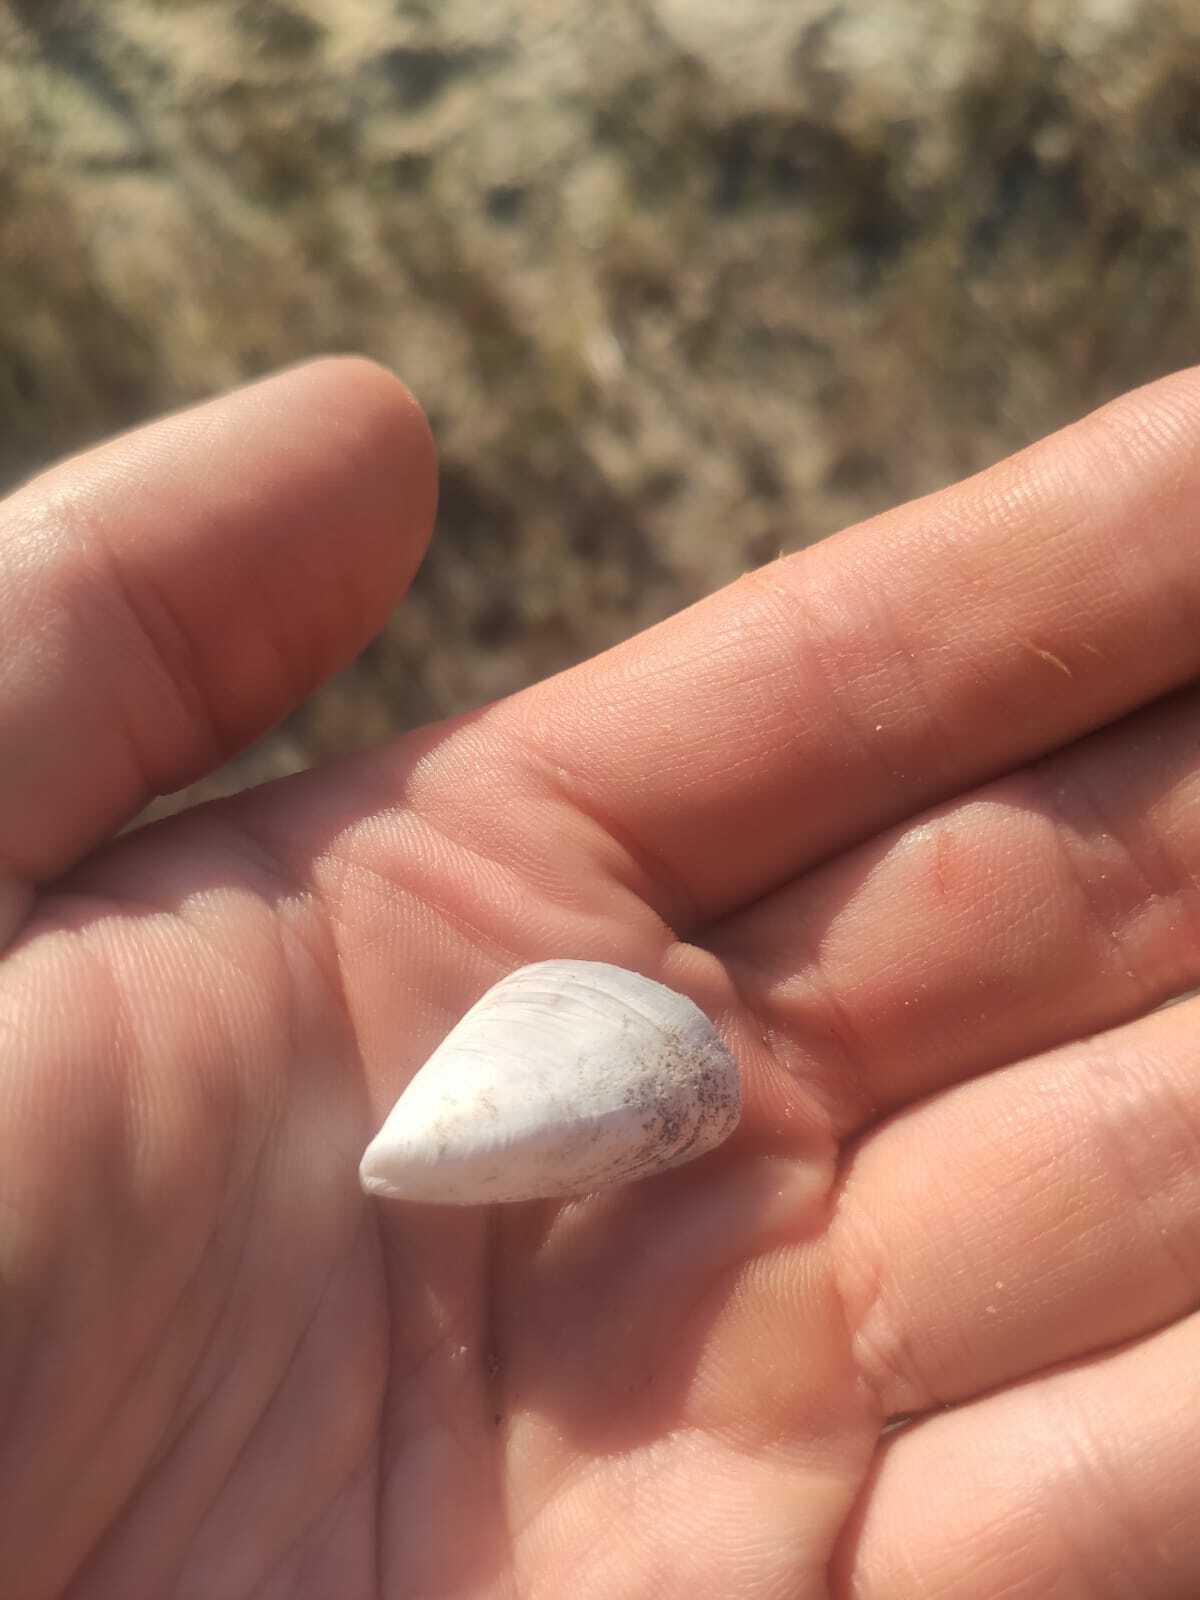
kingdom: Animalia
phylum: Mollusca
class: Bivalvia
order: Myida
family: Dreissenidae
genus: Dreissena
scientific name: Dreissena bugensis
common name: Quagga mussel
